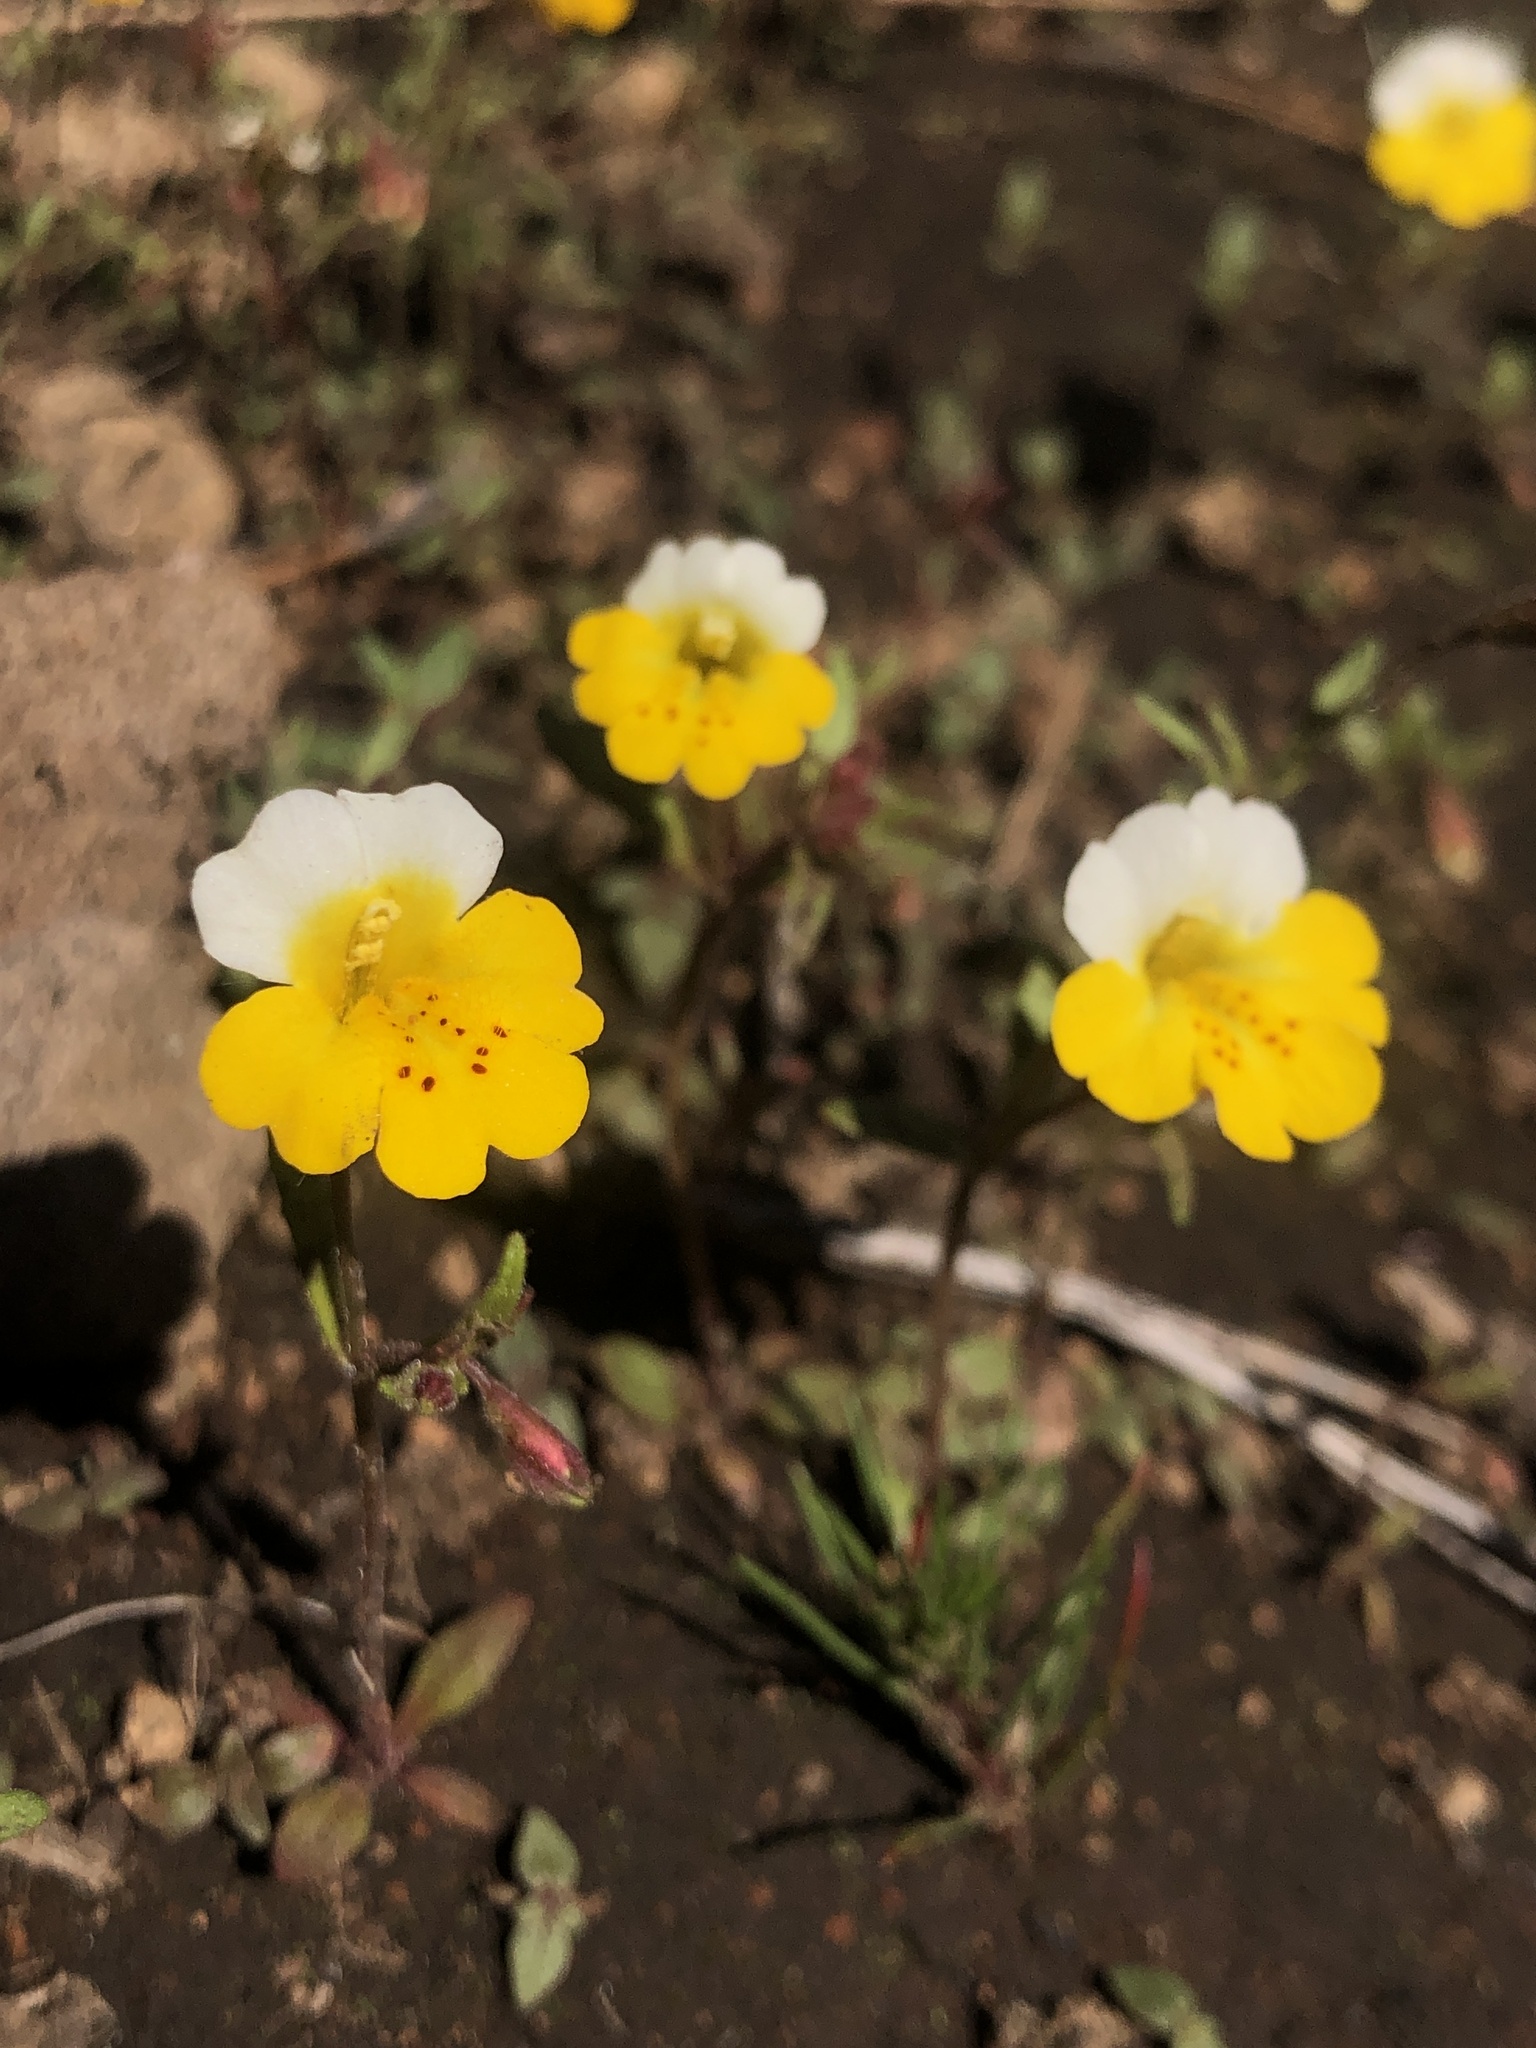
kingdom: Plantae
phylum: Tracheophyta
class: Magnoliopsida
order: Lamiales
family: Phrymaceae
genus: Erythranthe
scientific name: Erythranthe bicolor
